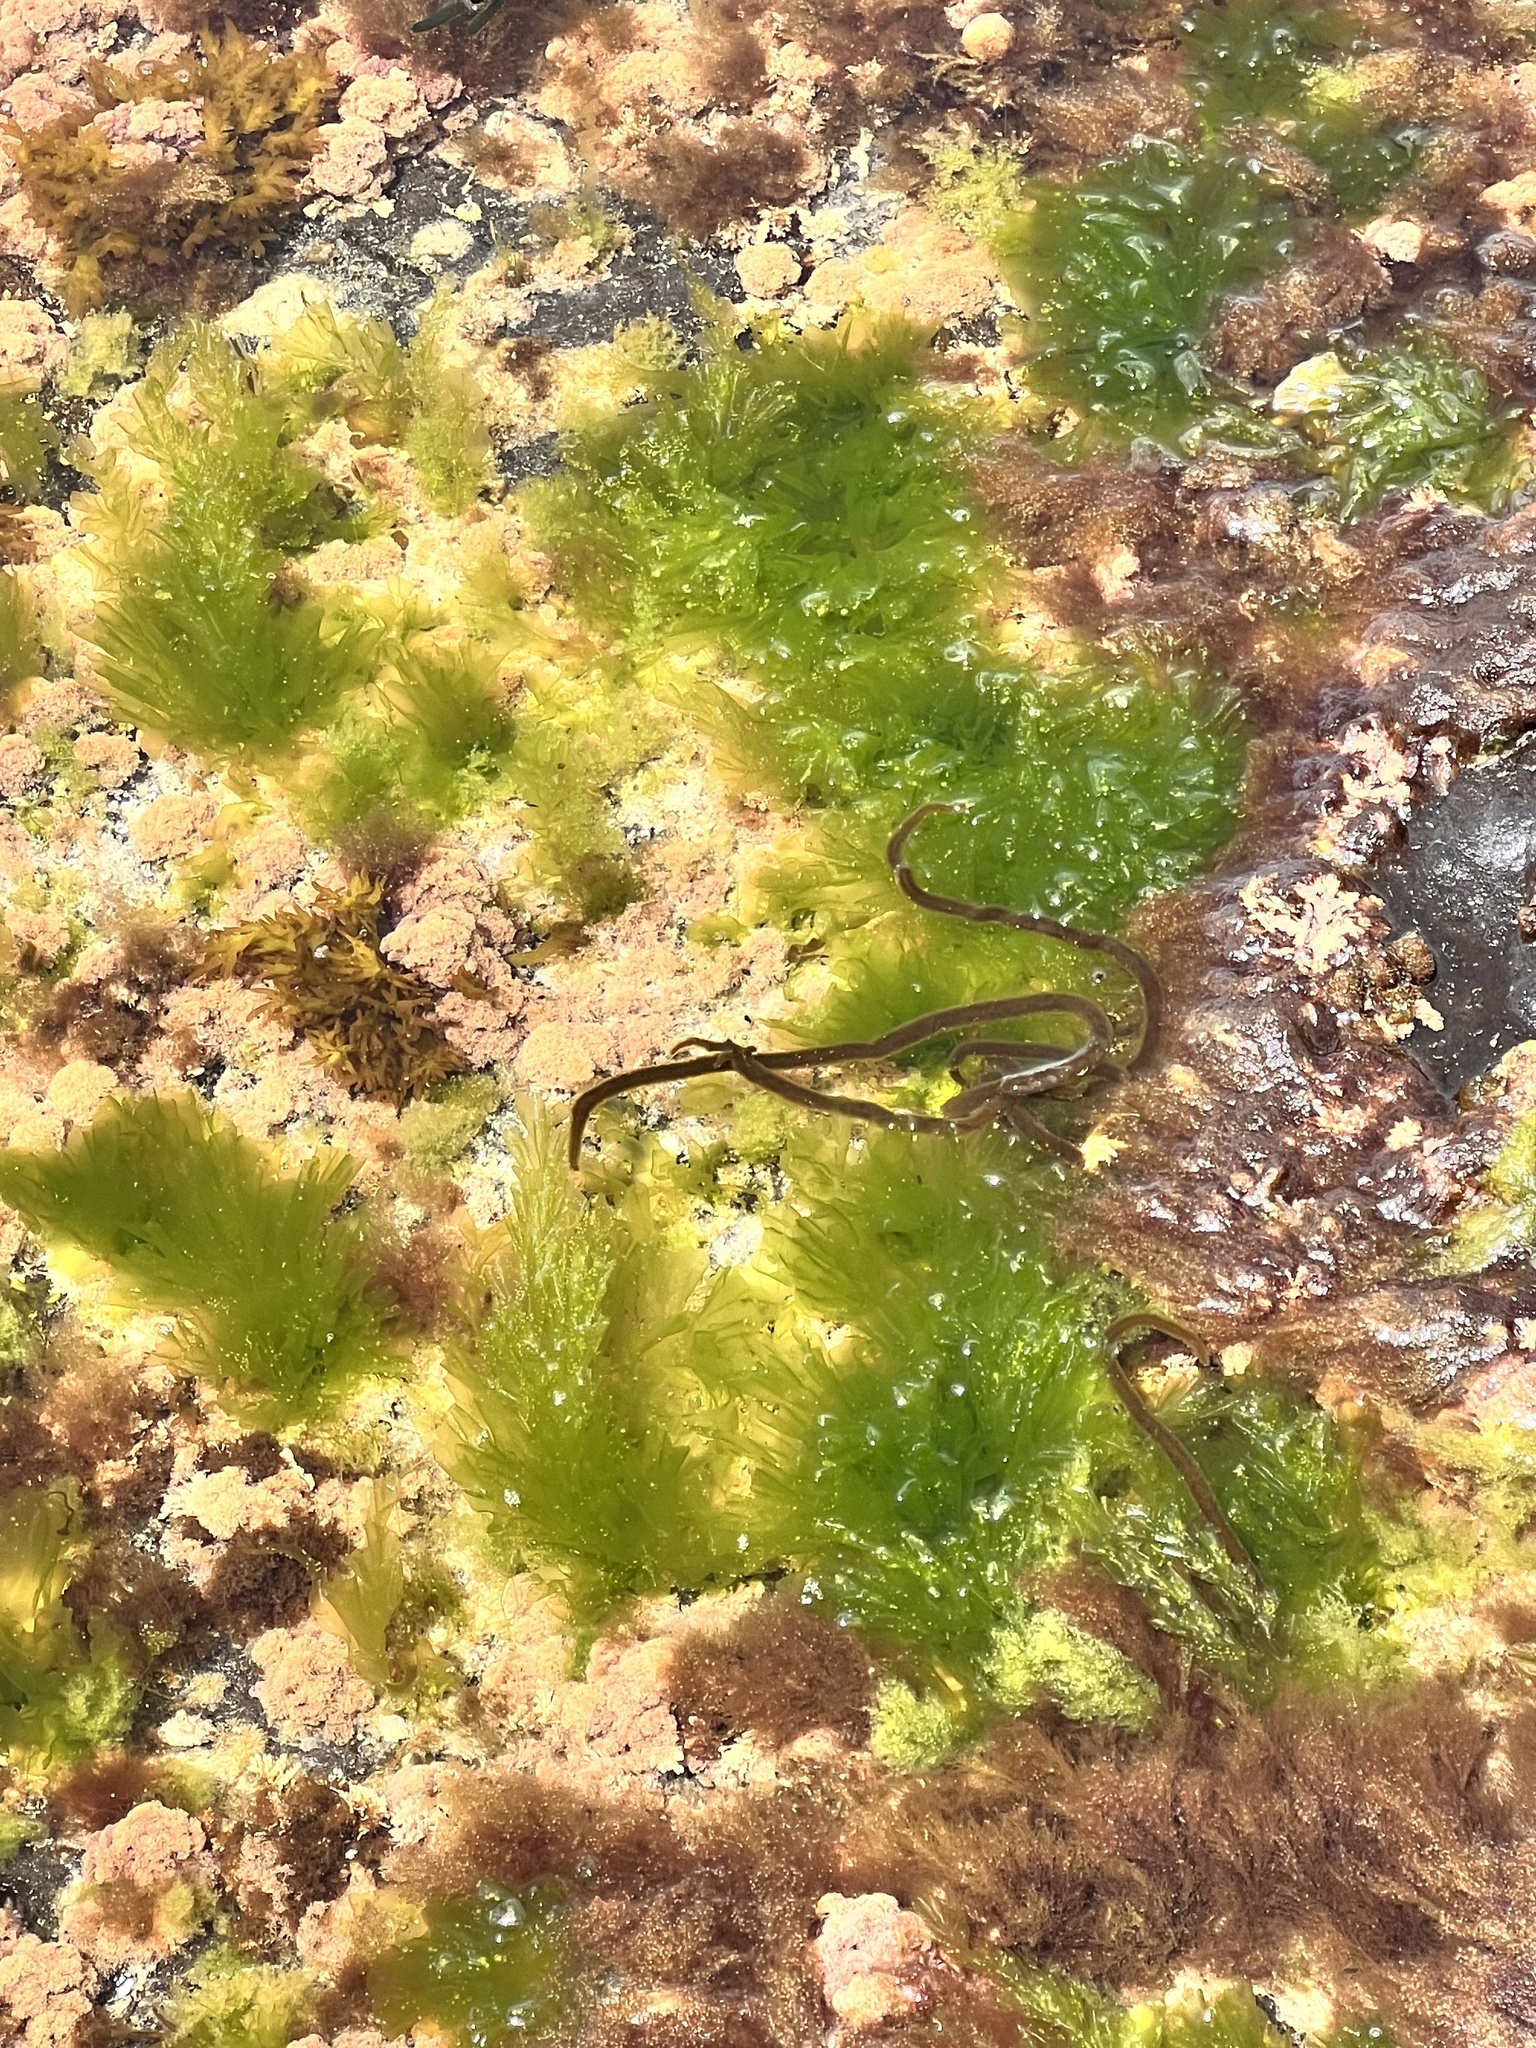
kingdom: Plantae
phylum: Chlorophyta
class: Ulvophyceae
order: Ulvales
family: Ulvaceae
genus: Ulva
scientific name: Ulva
